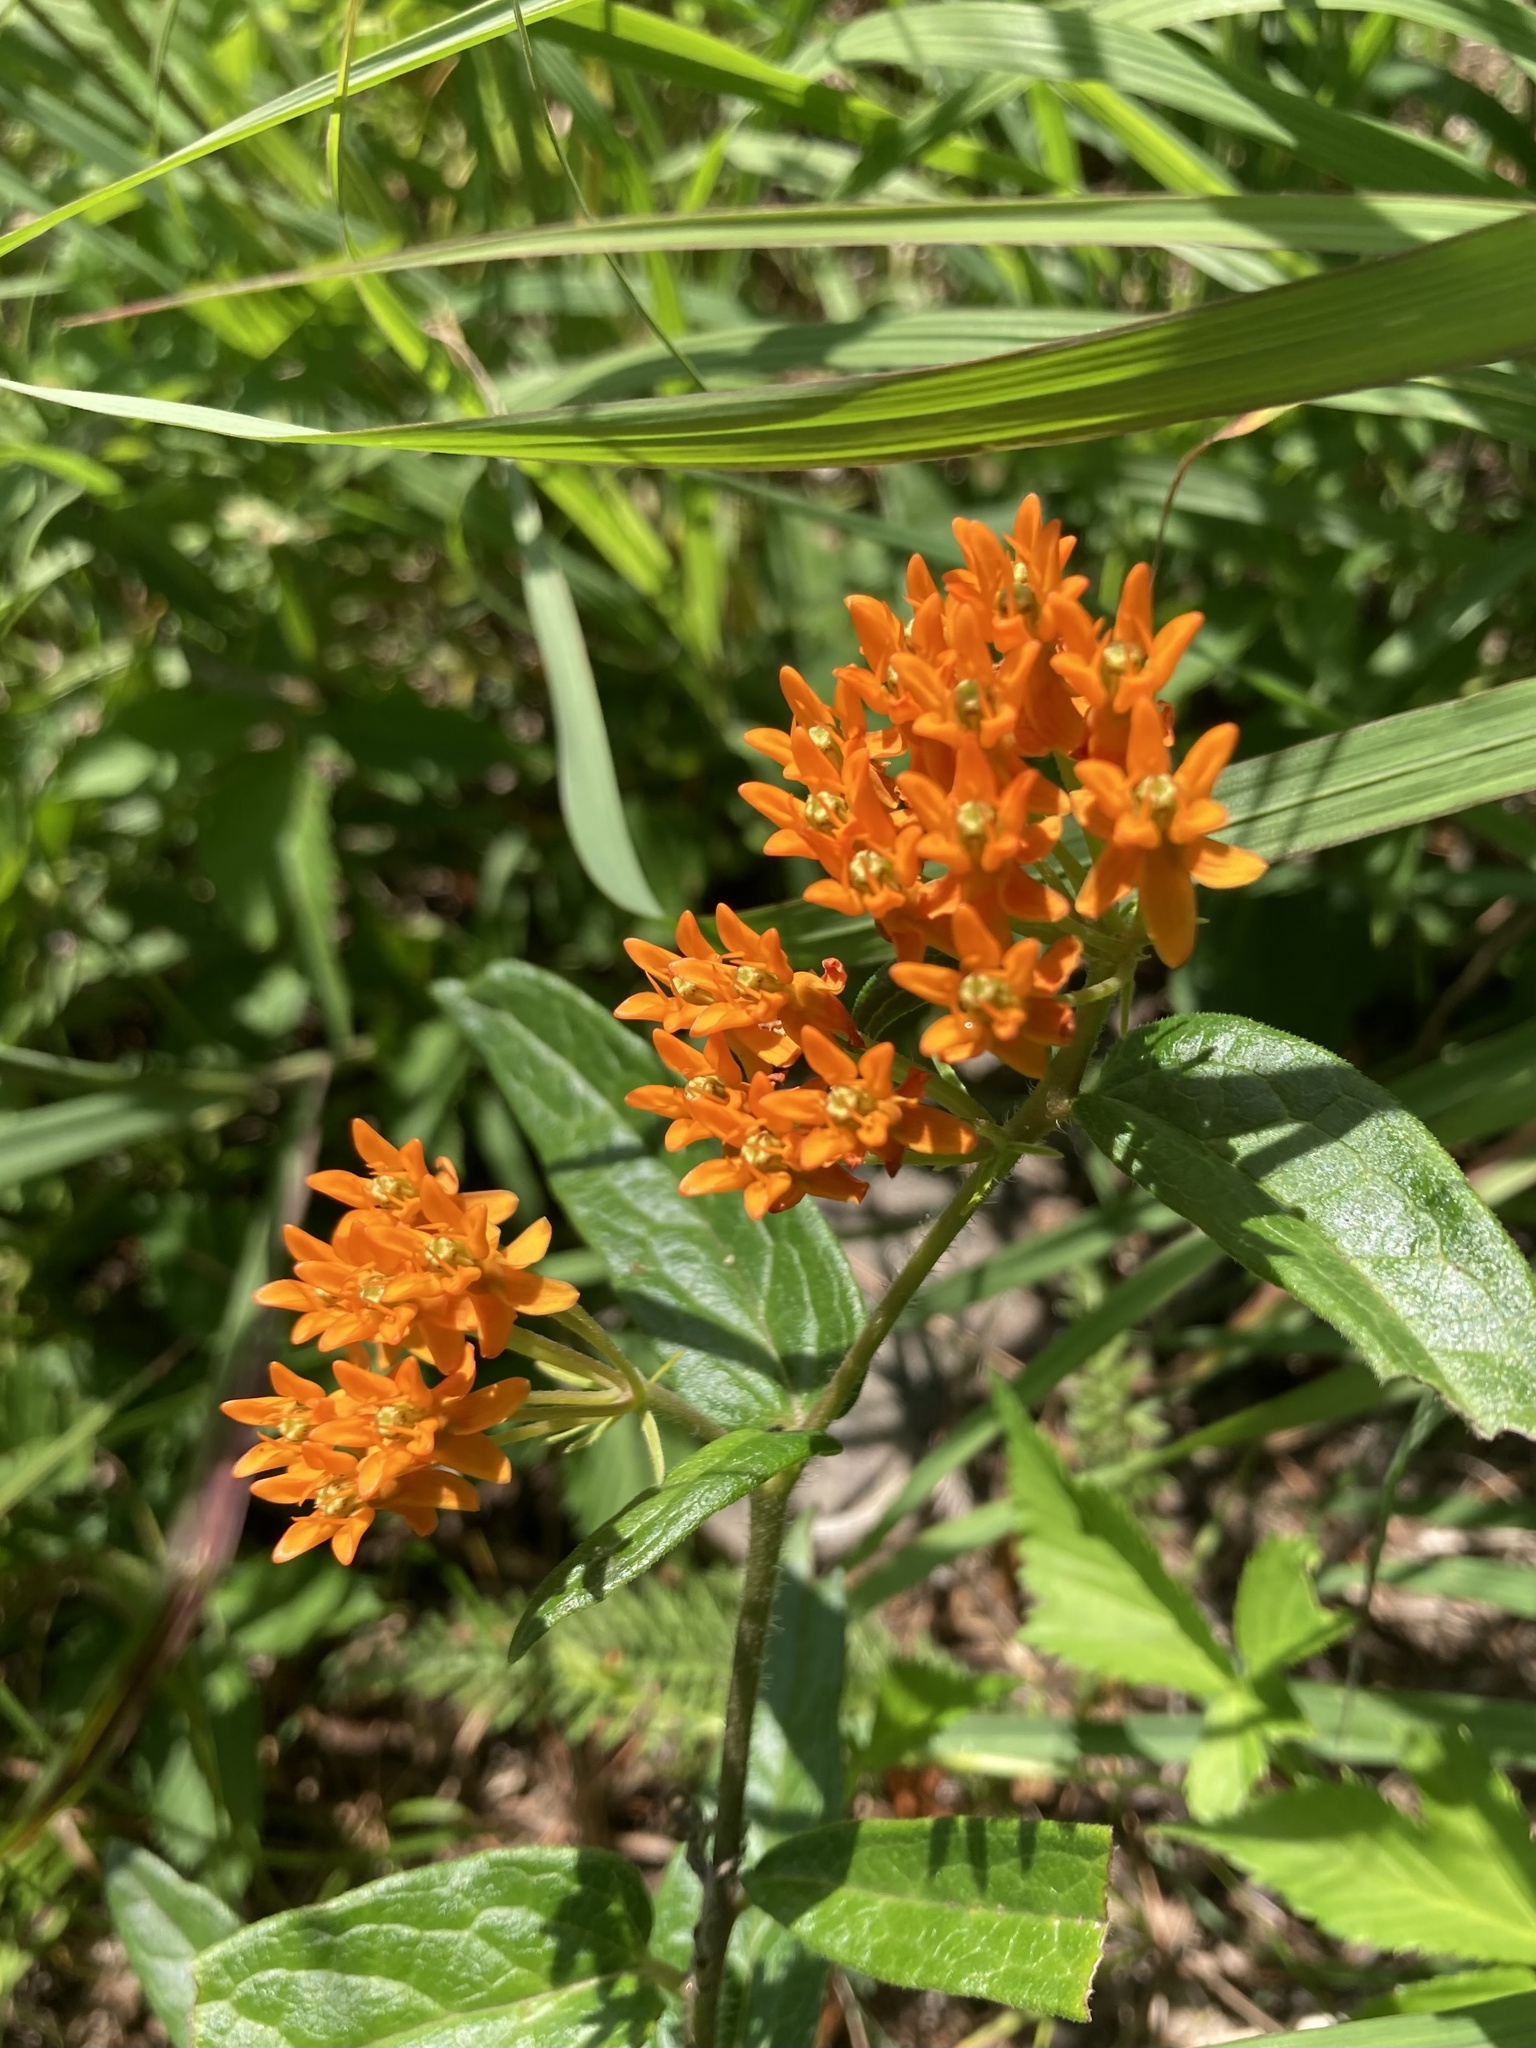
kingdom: Plantae
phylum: Tracheophyta
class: Magnoliopsida
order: Gentianales
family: Apocynaceae
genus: Asclepias
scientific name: Asclepias tuberosa
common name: Butterfly milkweed
